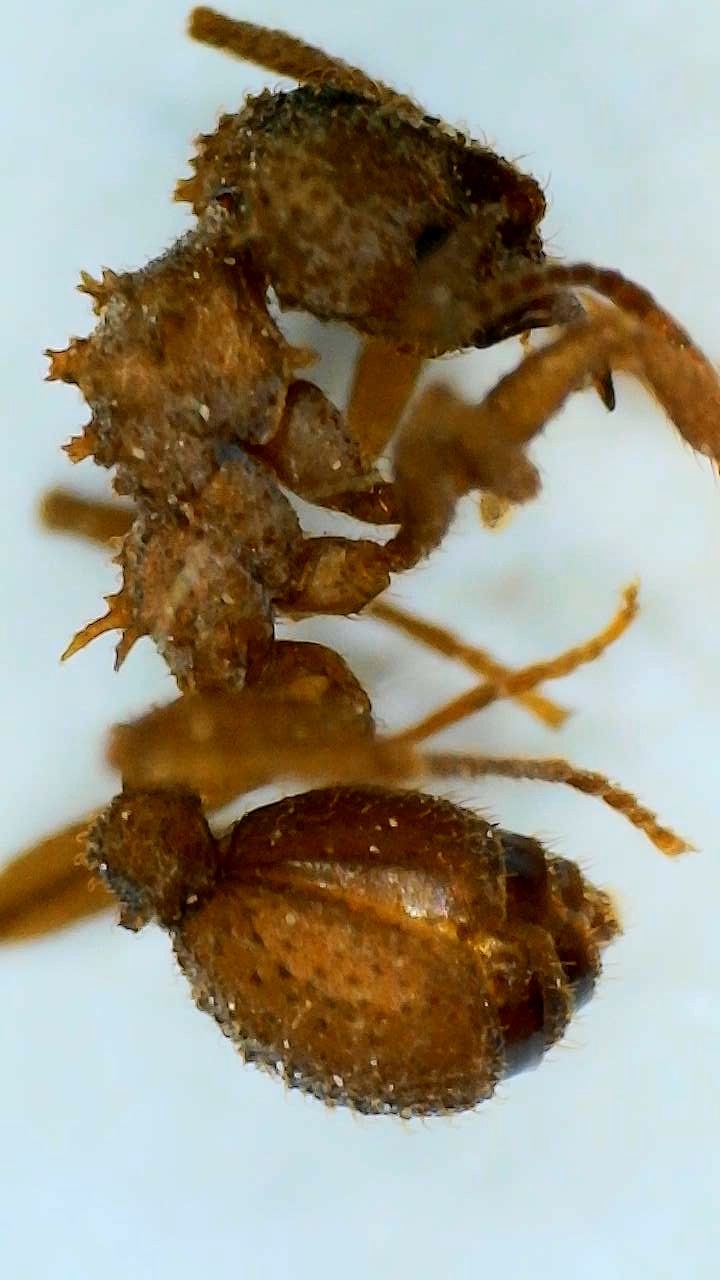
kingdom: Animalia
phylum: Arthropoda
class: Insecta
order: Hymenoptera
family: Formicidae
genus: Trachymyrmex
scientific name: Trachymyrmex septentrionalis
